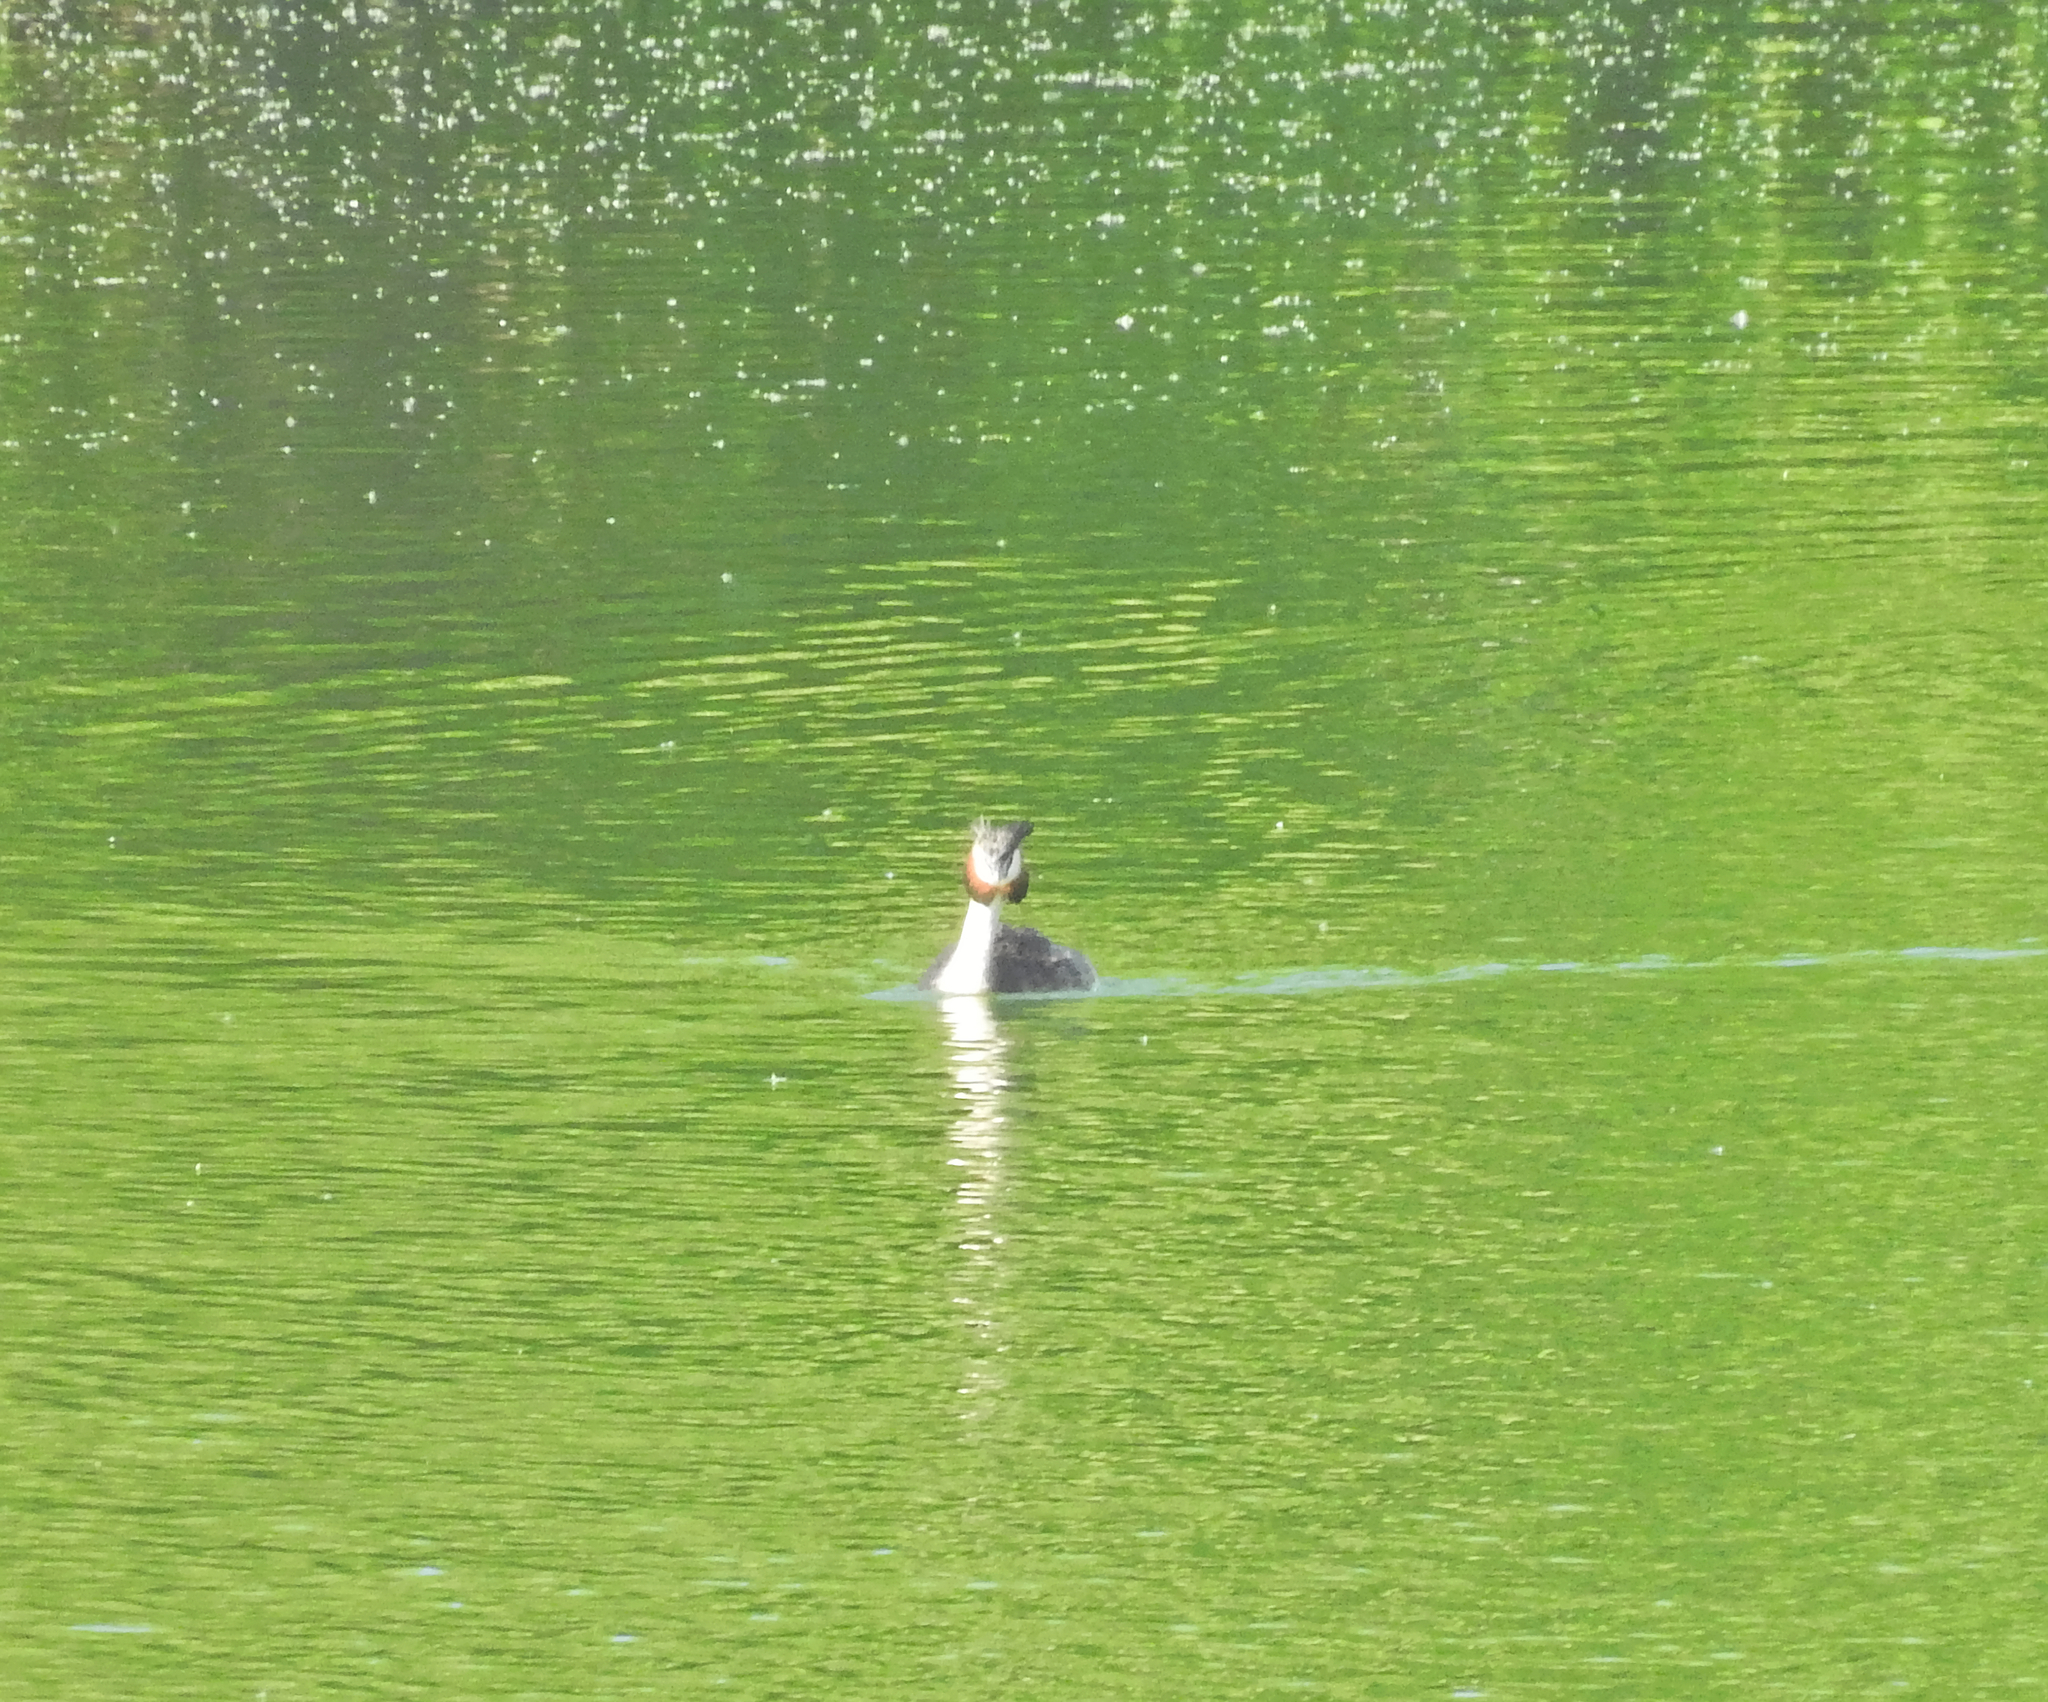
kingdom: Animalia
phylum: Chordata
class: Aves
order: Podicipediformes
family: Podicipedidae
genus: Podiceps
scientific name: Podiceps cristatus
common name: Great crested grebe
